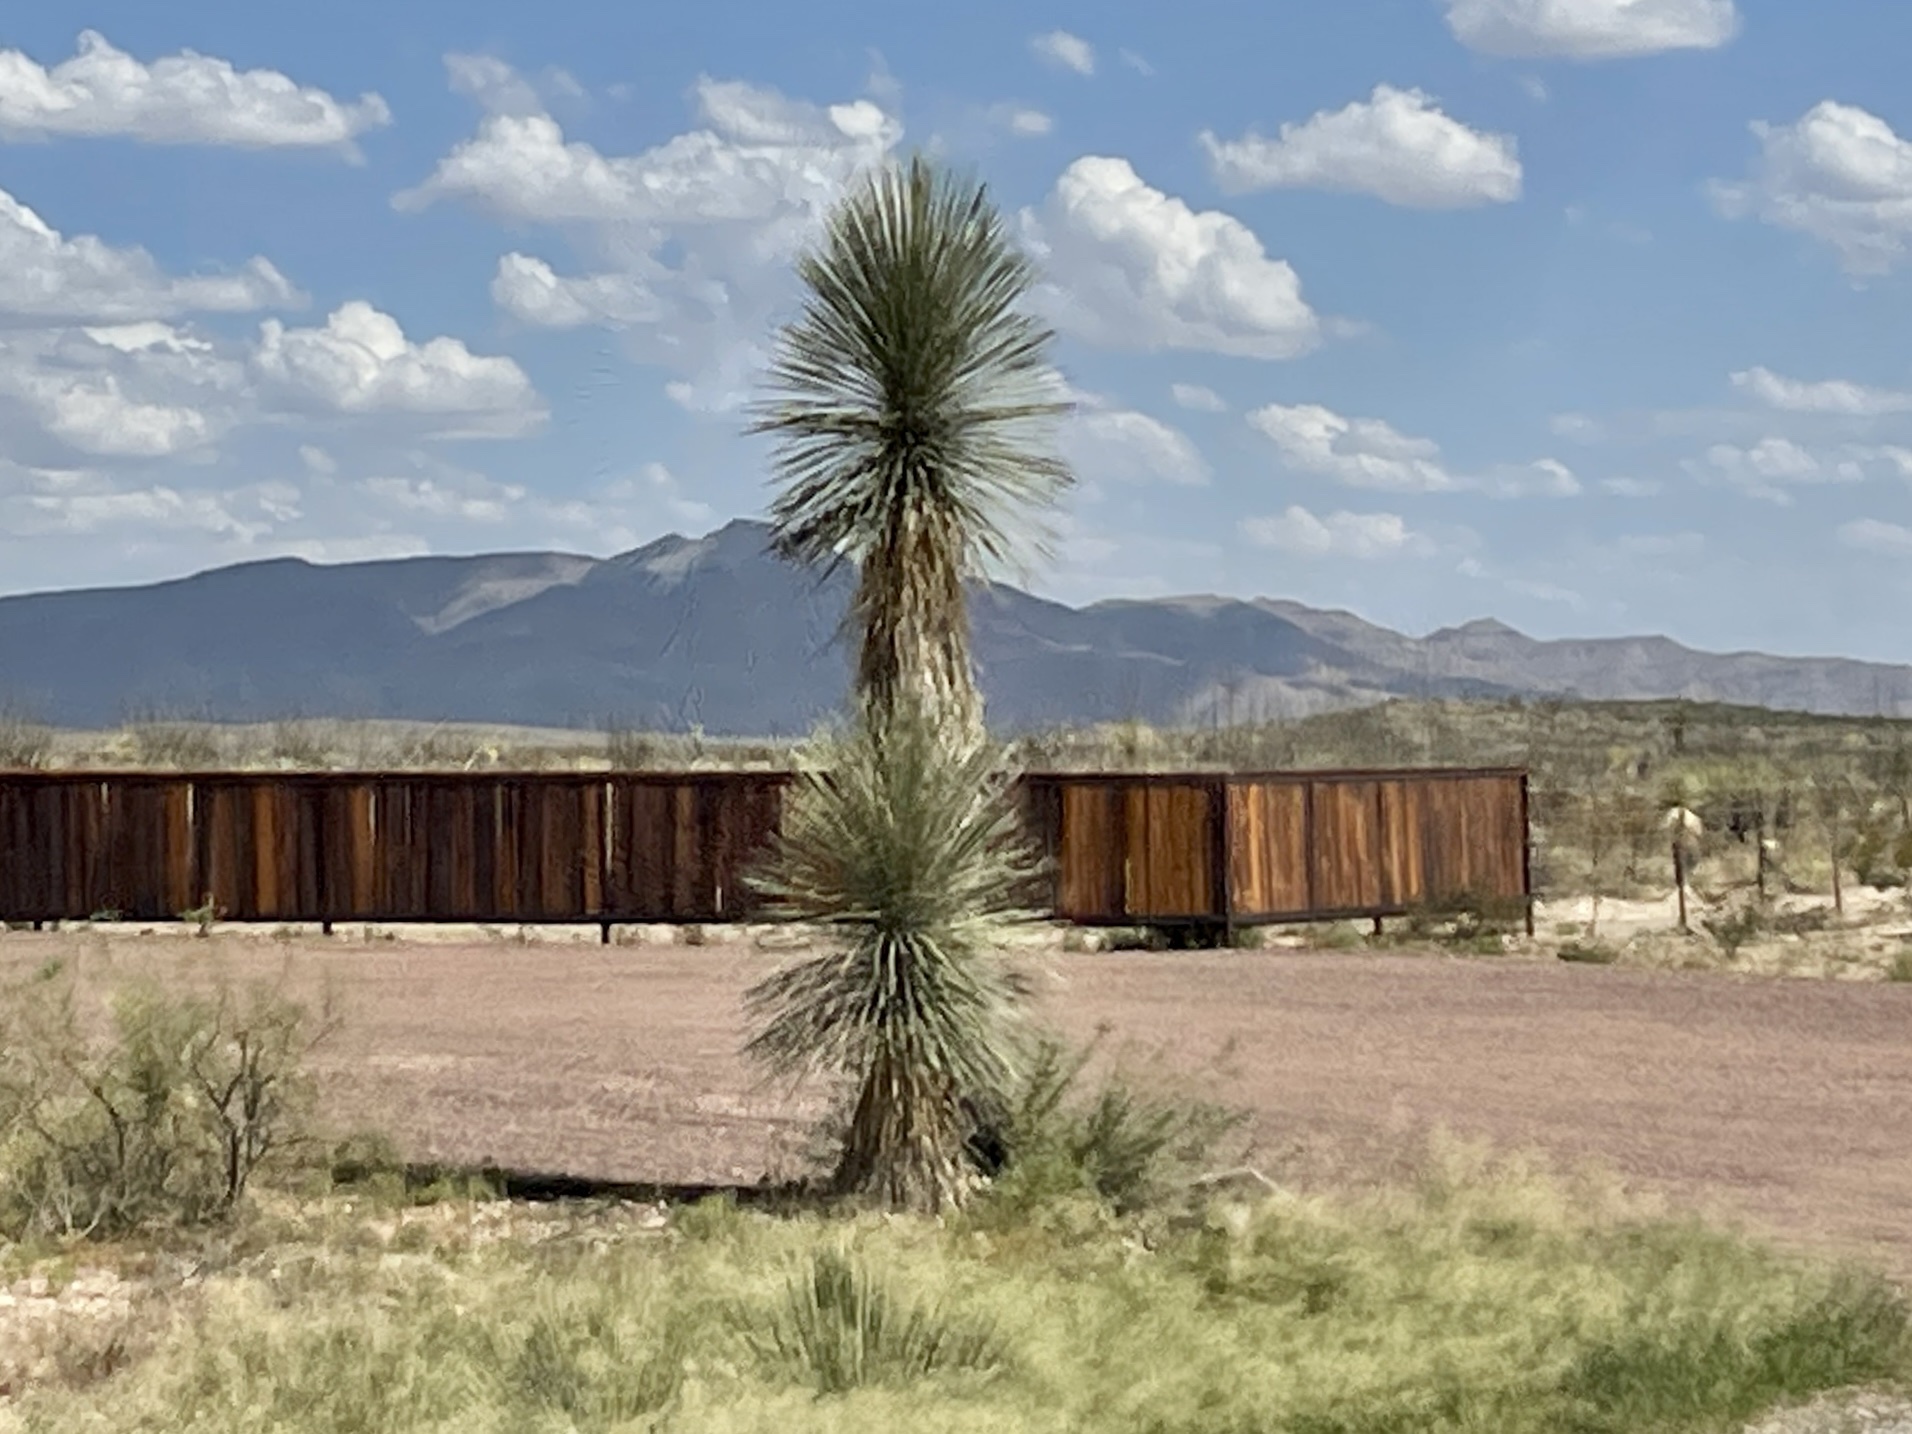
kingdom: Plantae
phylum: Tracheophyta
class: Liliopsida
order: Asparagales
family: Asparagaceae
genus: Yucca
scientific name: Yucca elata
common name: Palmella
